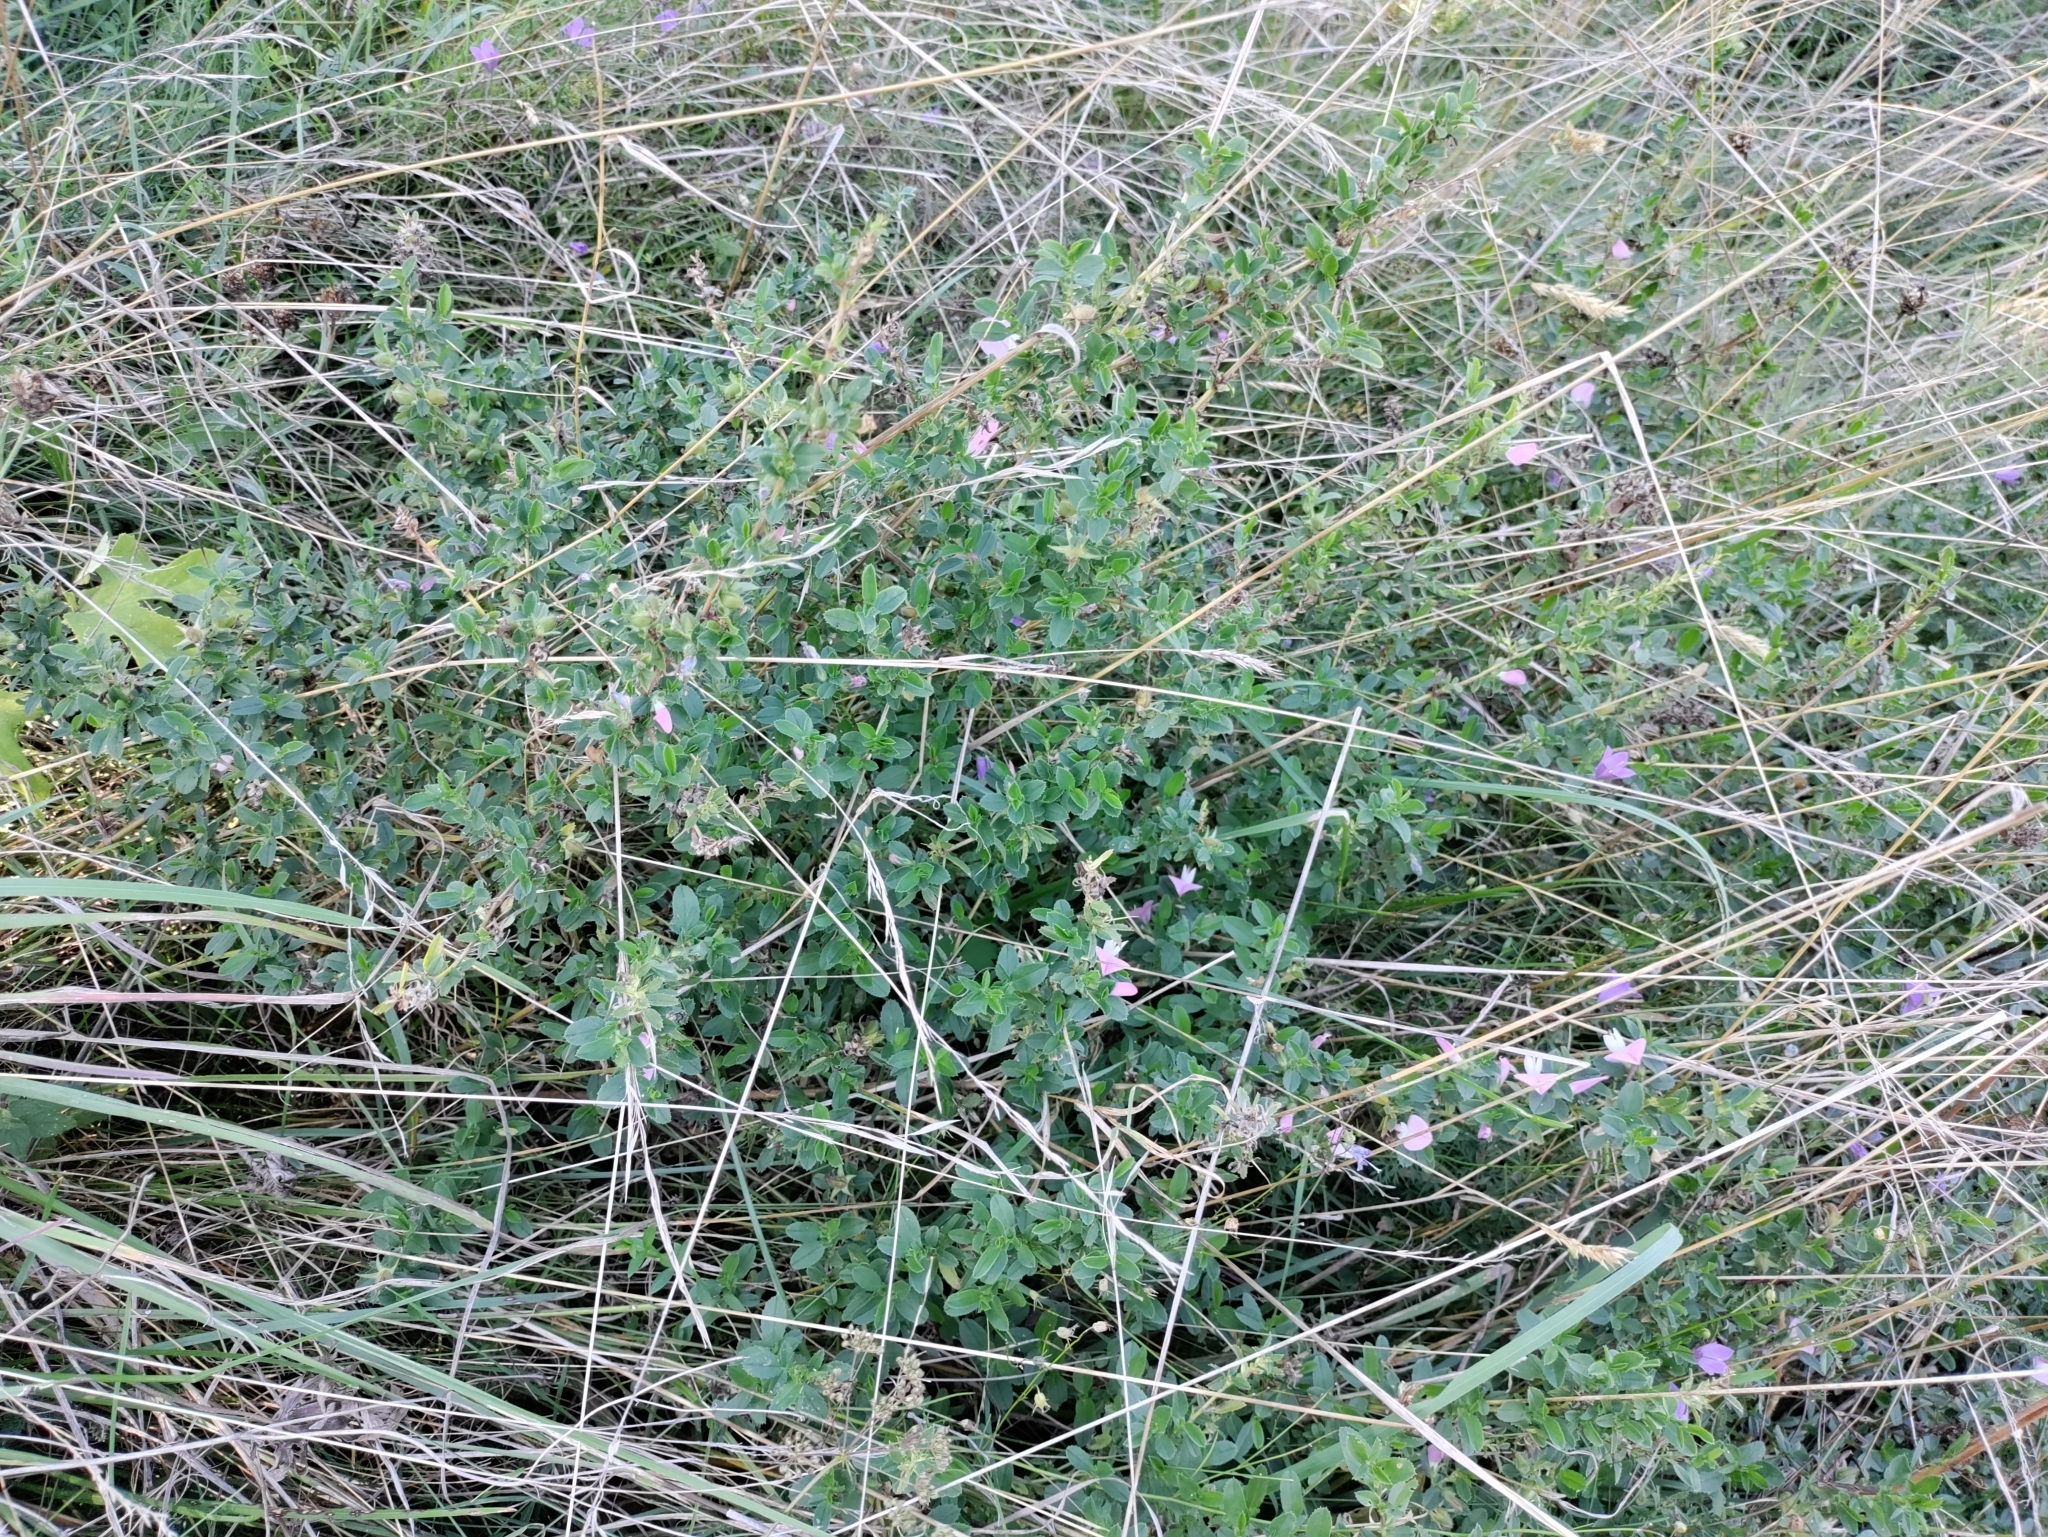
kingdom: Plantae
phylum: Tracheophyta
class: Magnoliopsida
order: Fabales
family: Fabaceae
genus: Ononis
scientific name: Ononis spinosa
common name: Spiny restharrow
